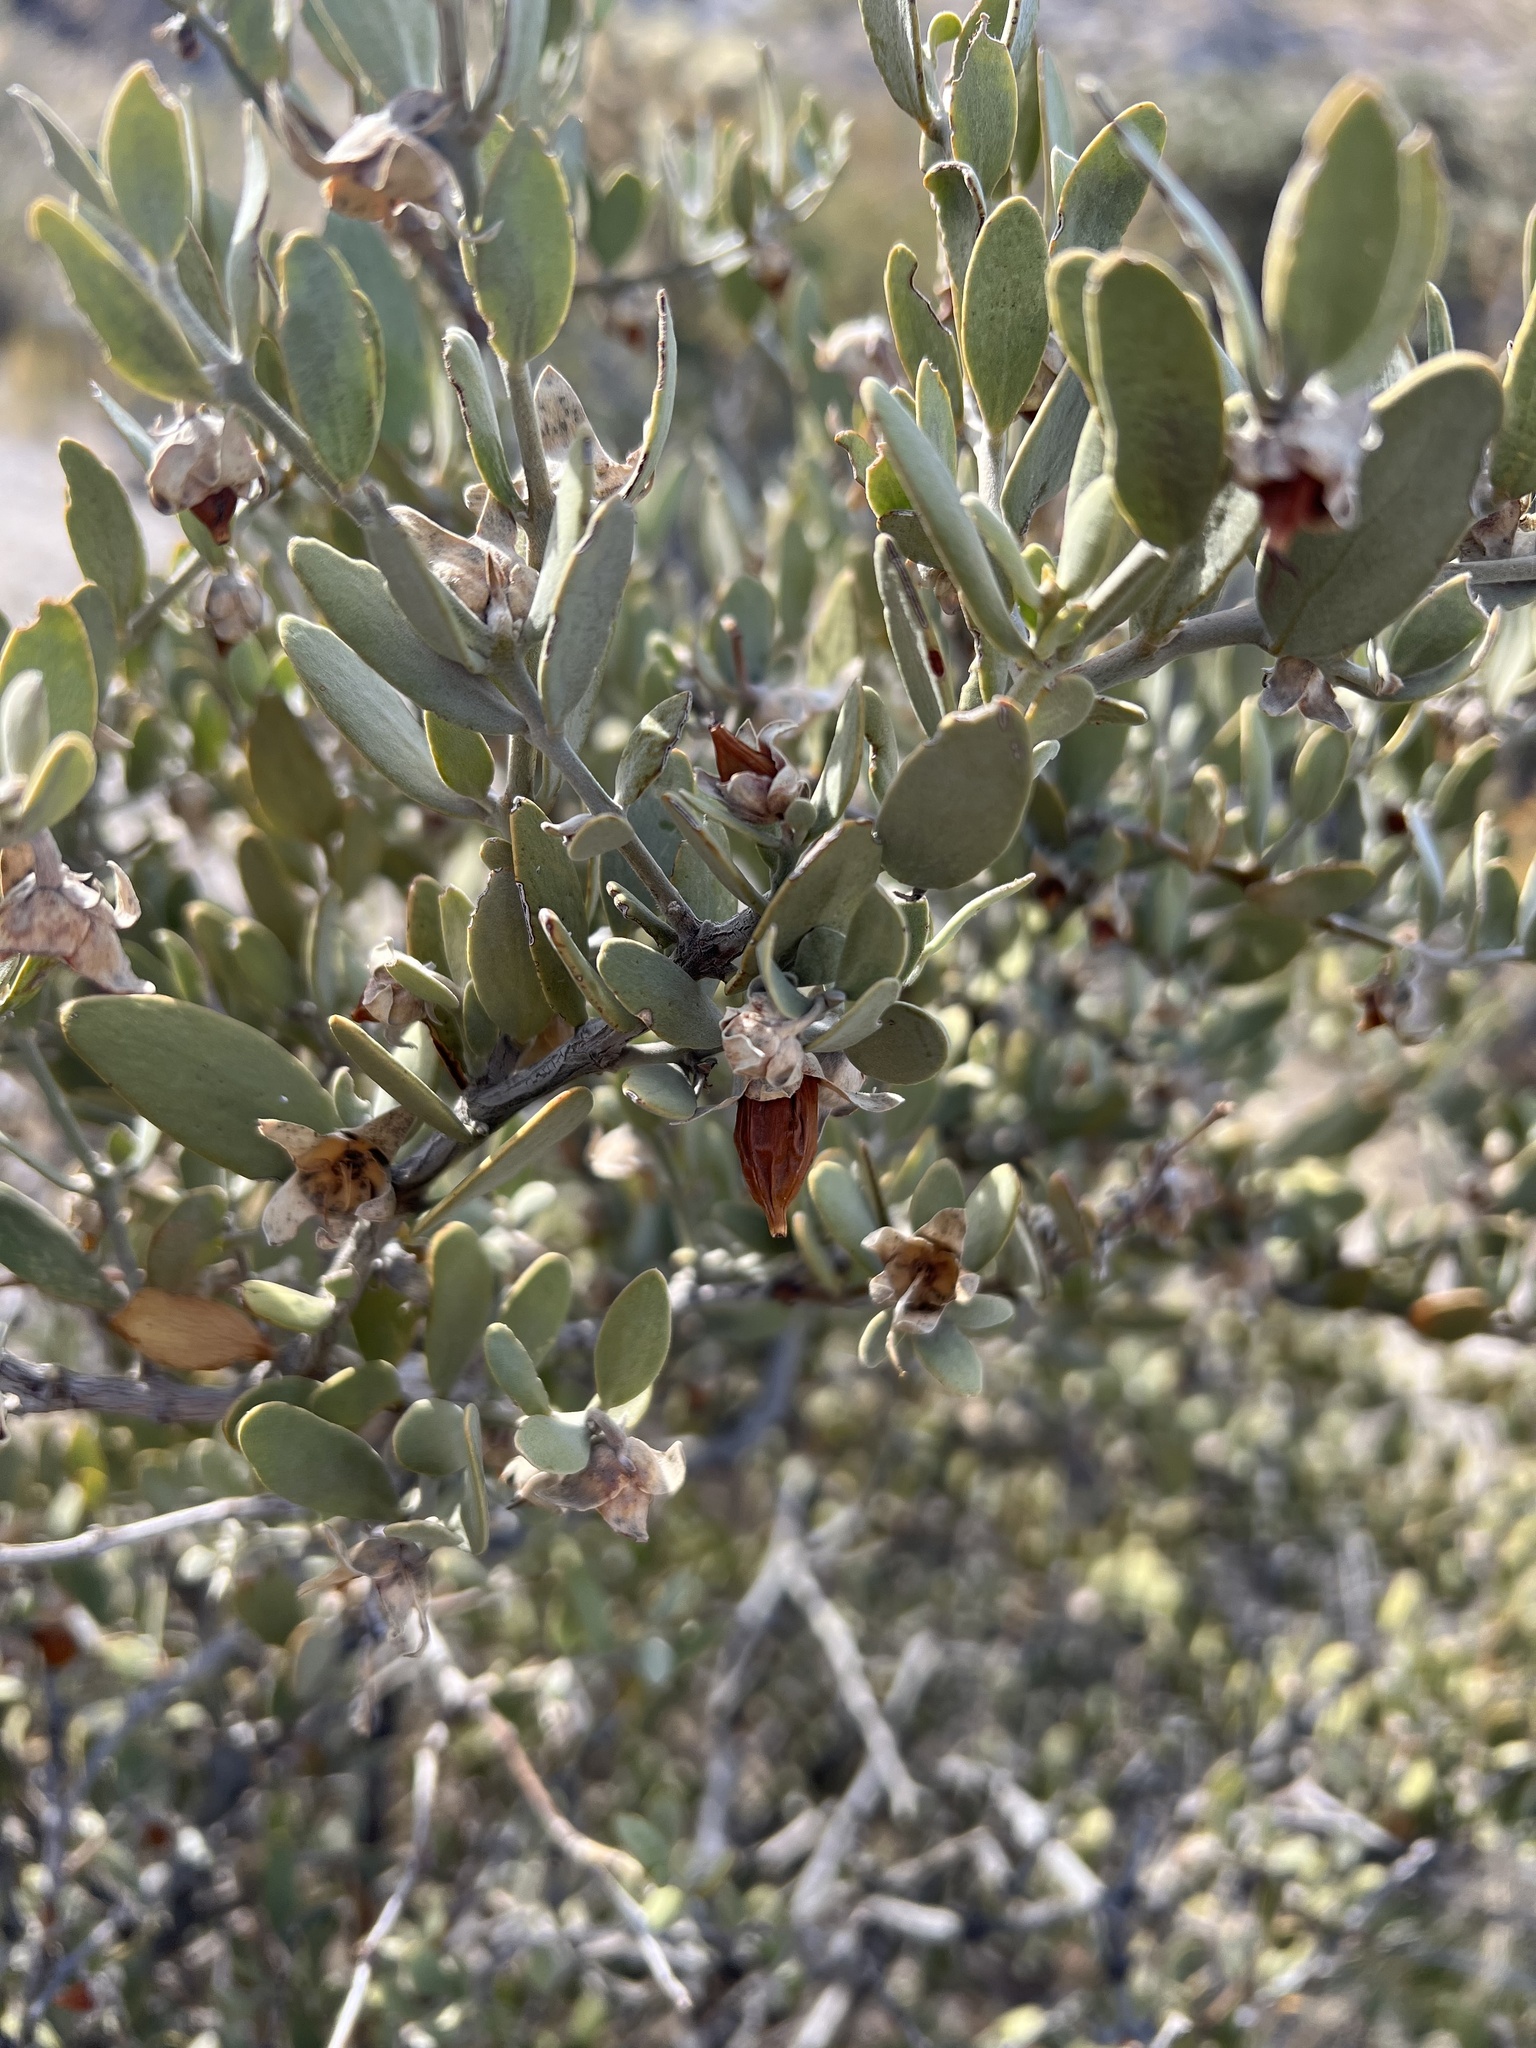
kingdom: Plantae
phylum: Tracheophyta
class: Magnoliopsida
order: Caryophyllales
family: Simmondsiaceae
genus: Simmondsia
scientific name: Simmondsia chinensis
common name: Jojoba
